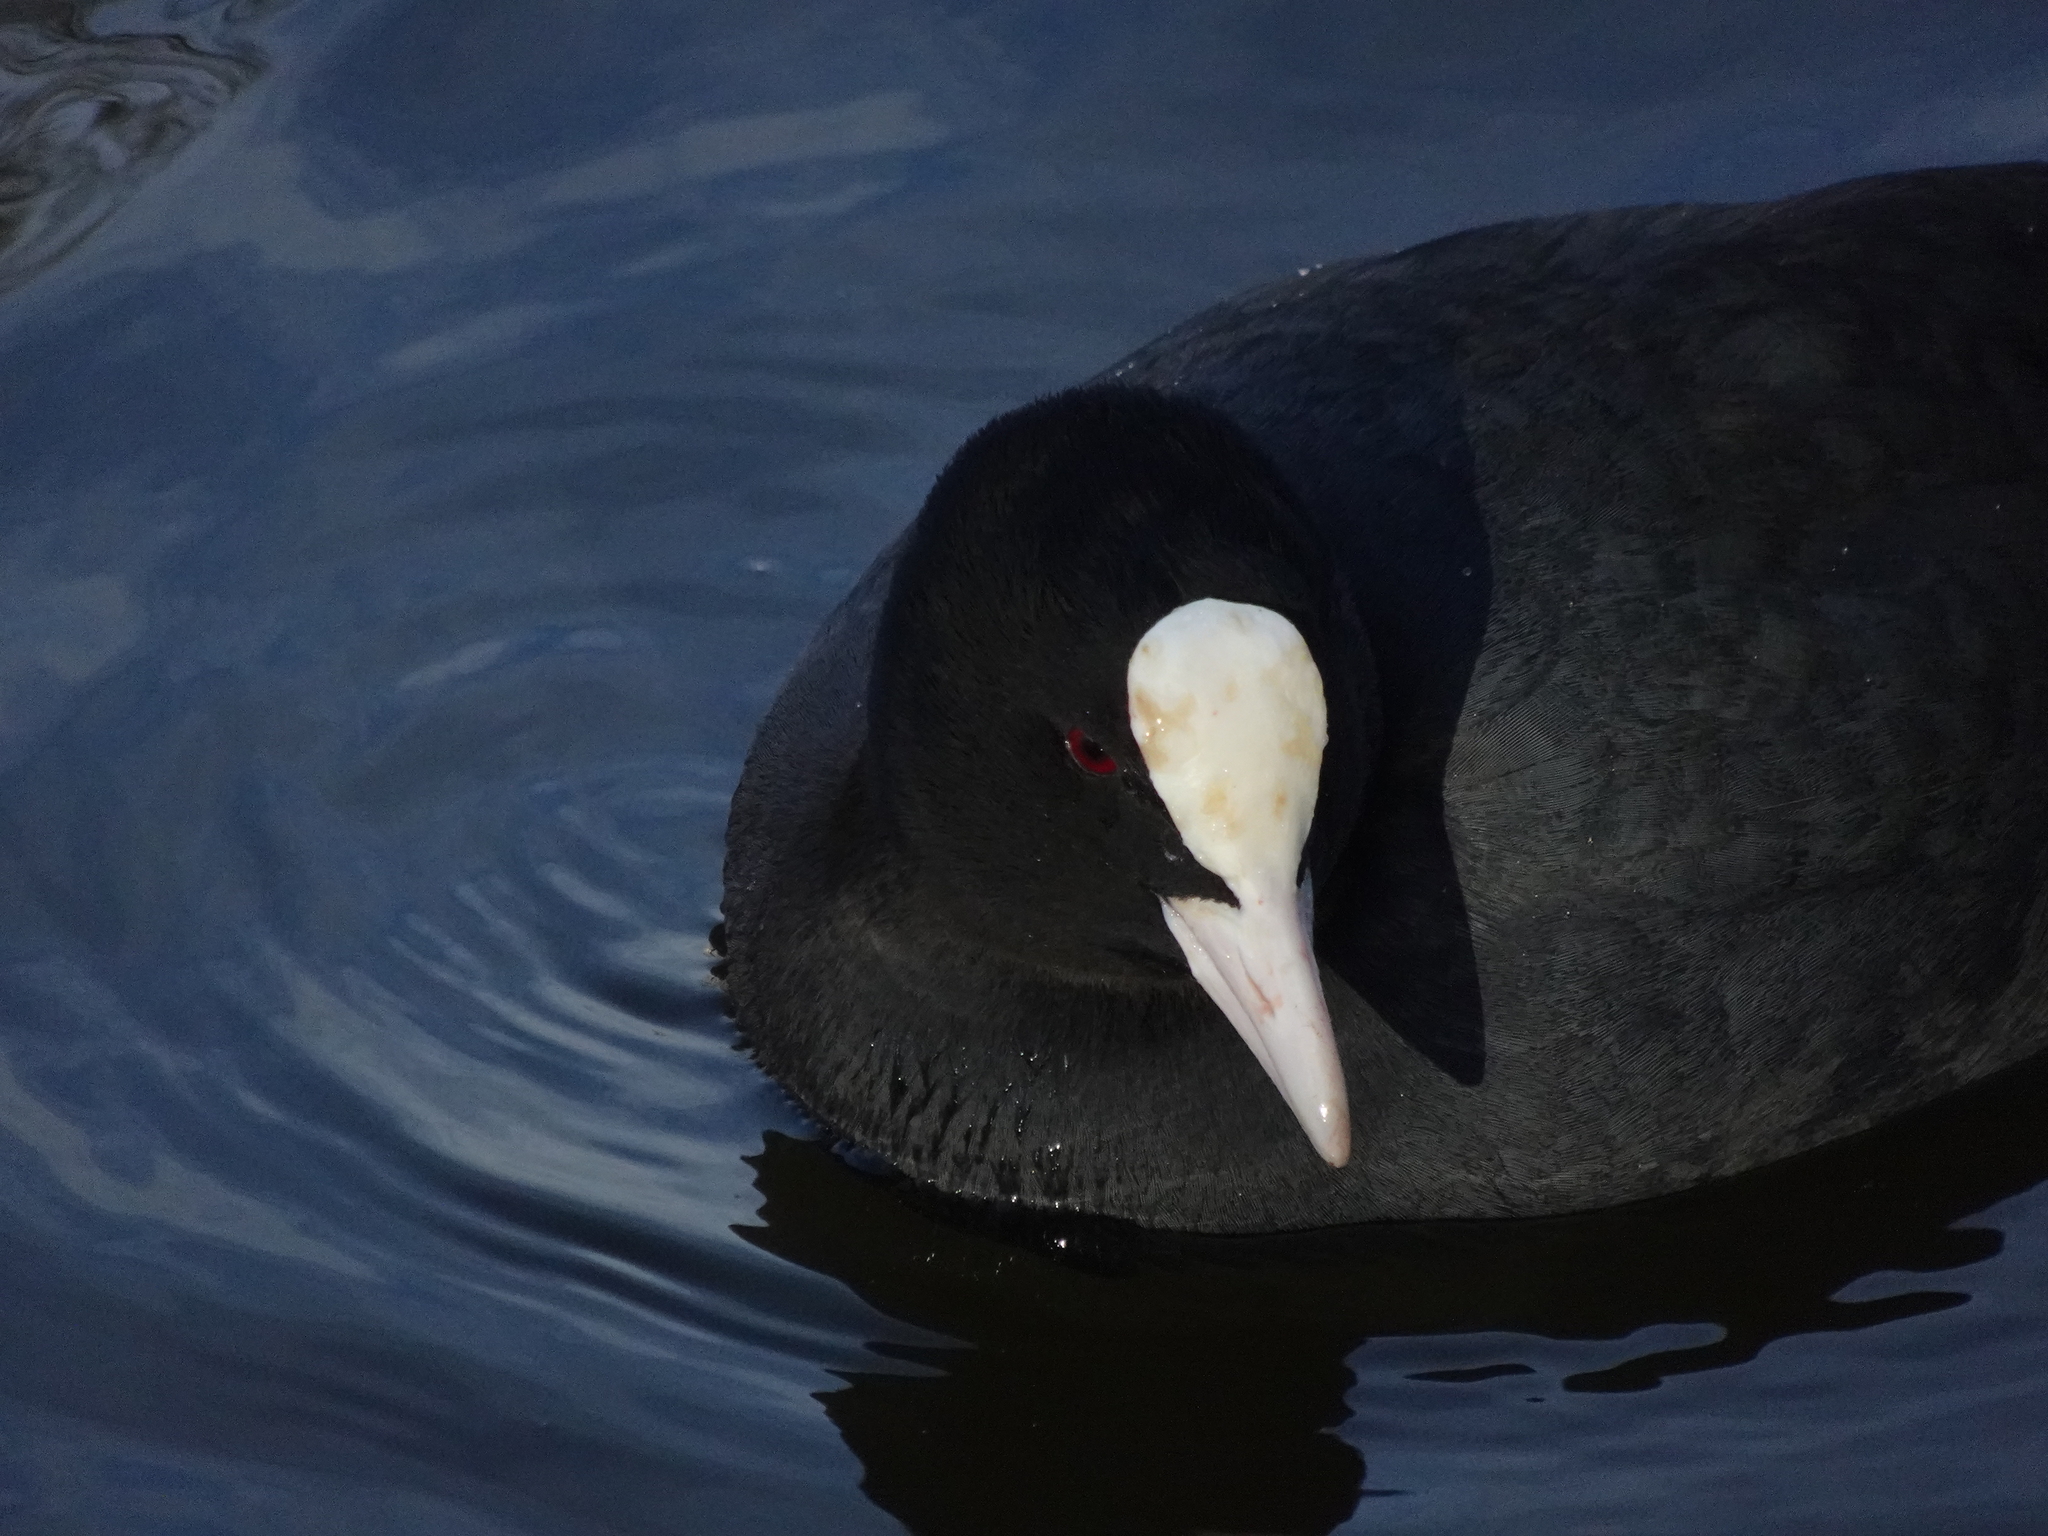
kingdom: Animalia
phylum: Chordata
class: Aves
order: Gruiformes
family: Rallidae
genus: Fulica
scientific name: Fulica atra
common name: Eurasian coot
